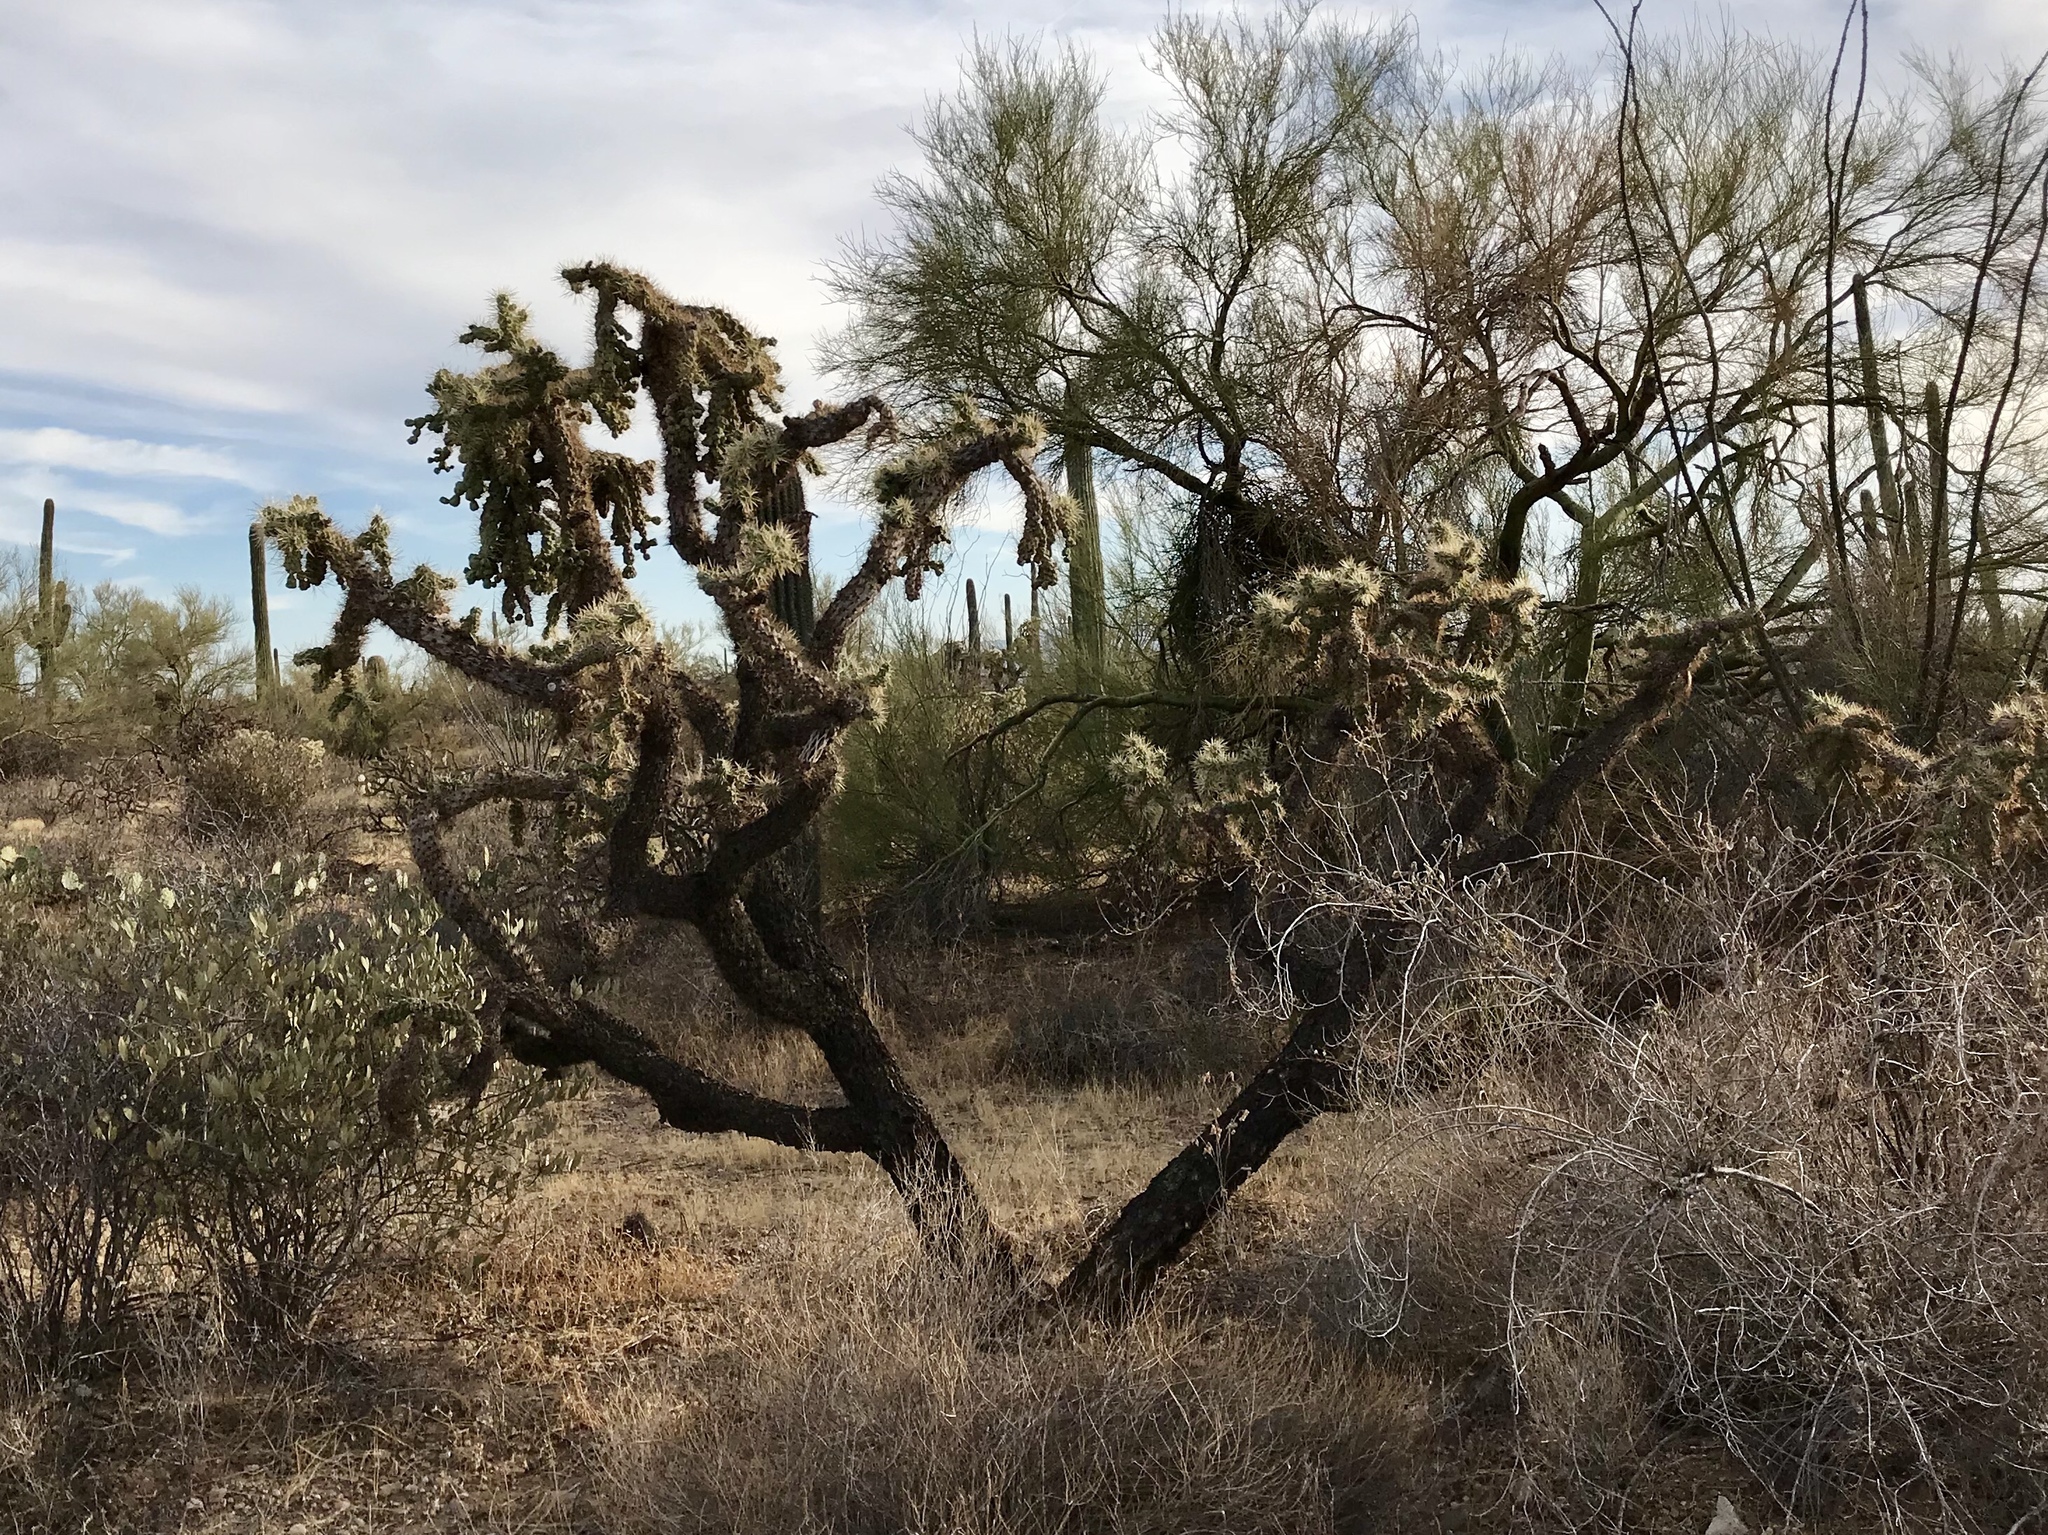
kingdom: Plantae
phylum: Tracheophyta
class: Magnoliopsida
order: Caryophyllales
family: Cactaceae
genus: Cylindropuntia
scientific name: Cylindropuntia fulgida
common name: Jumping cholla
